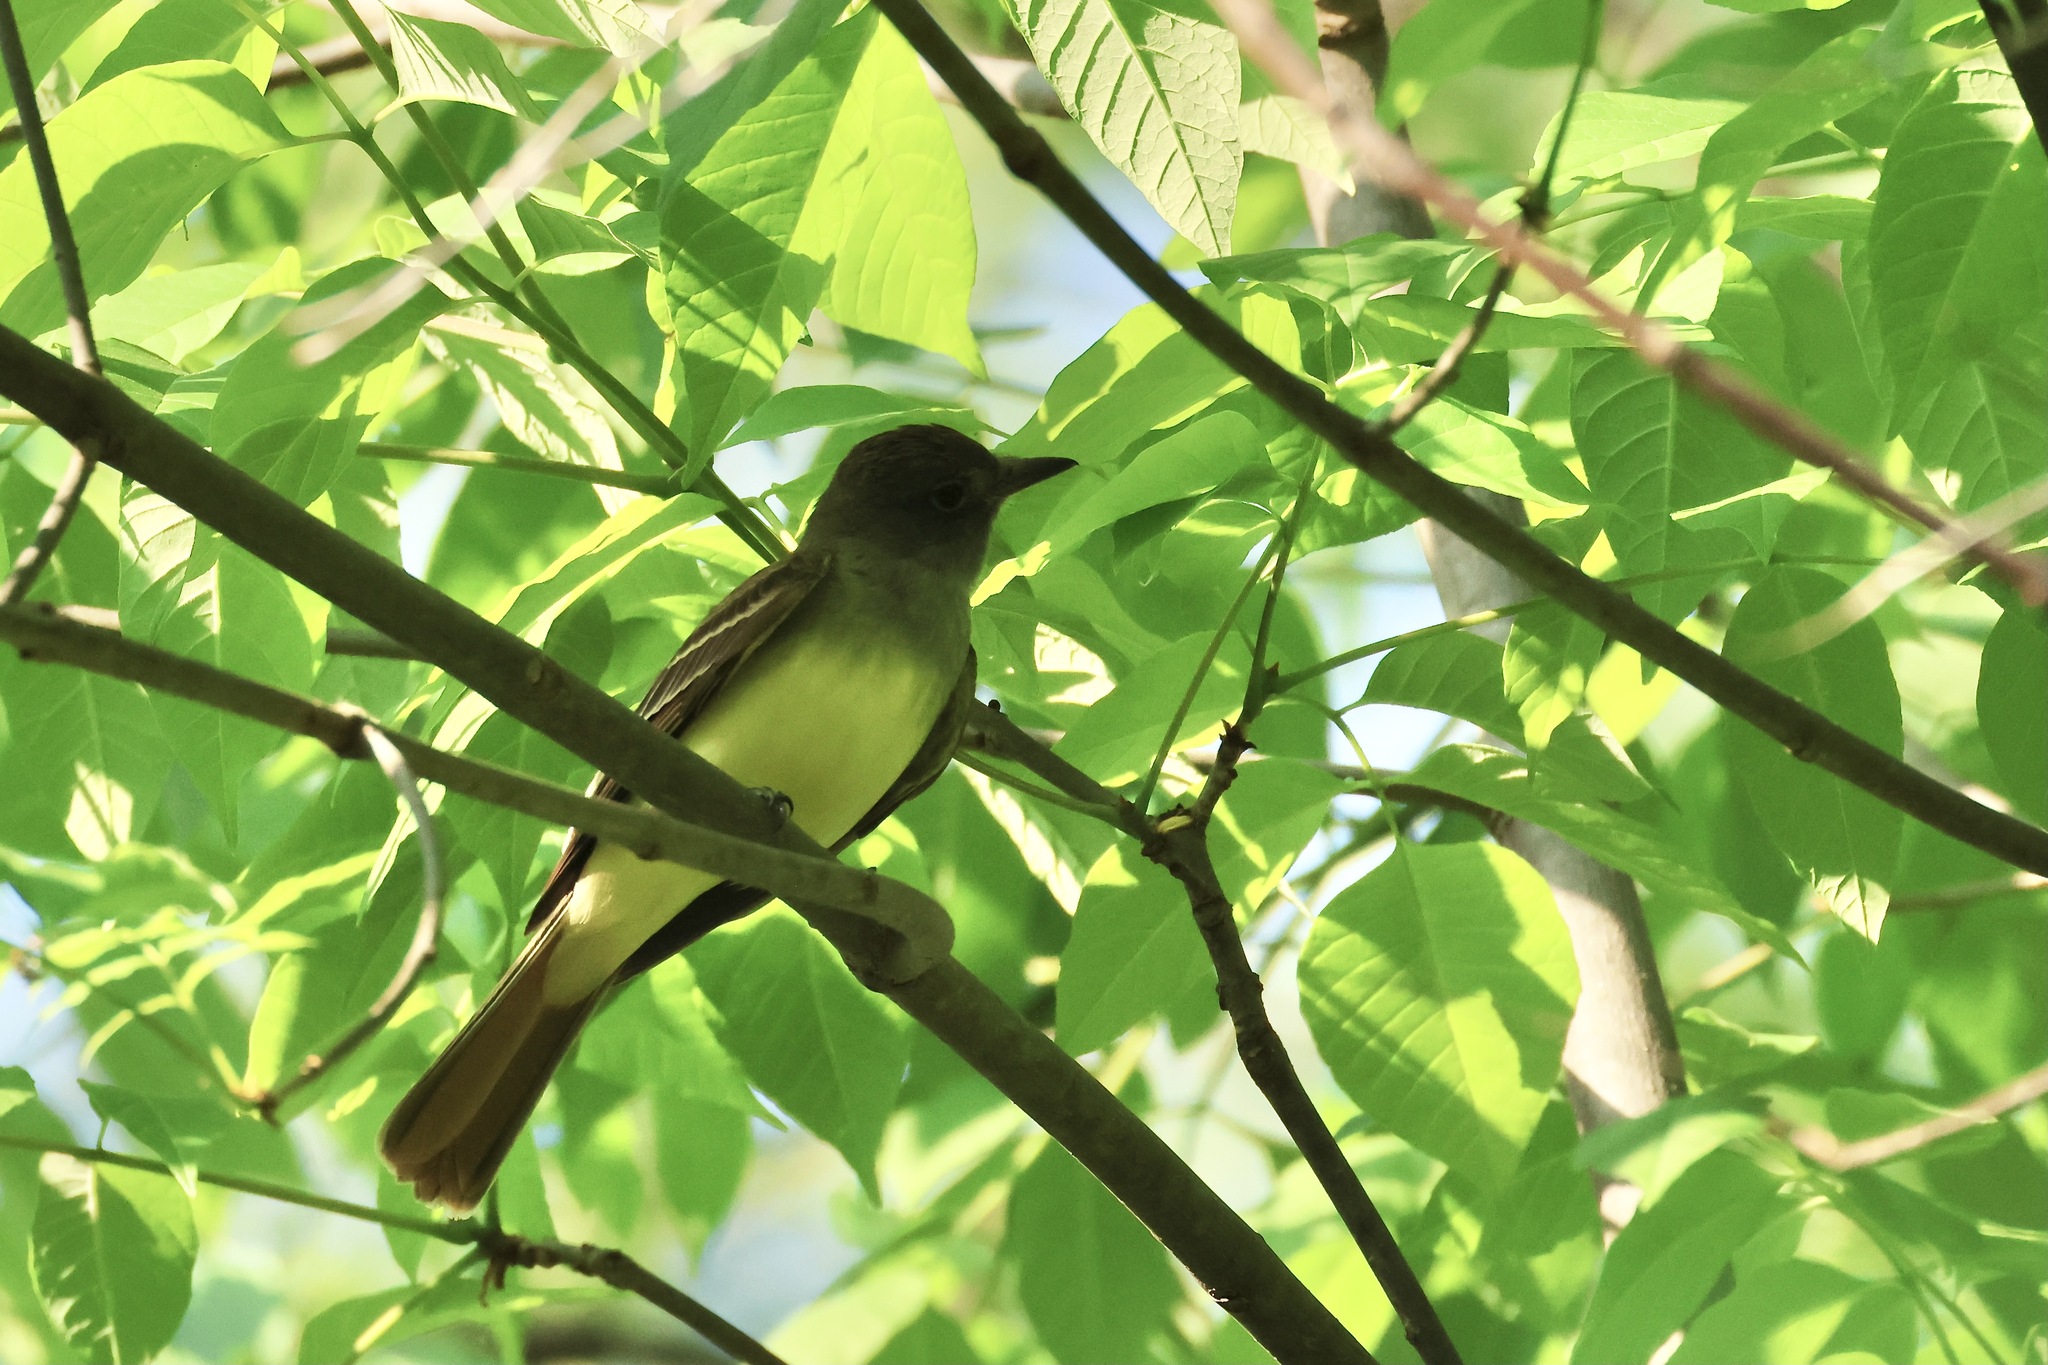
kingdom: Animalia
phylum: Chordata
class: Aves
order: Passeriformes
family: Tyrannidae
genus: Myiarchus
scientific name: Myiarchus crinitus
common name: Great crested flycatcher
